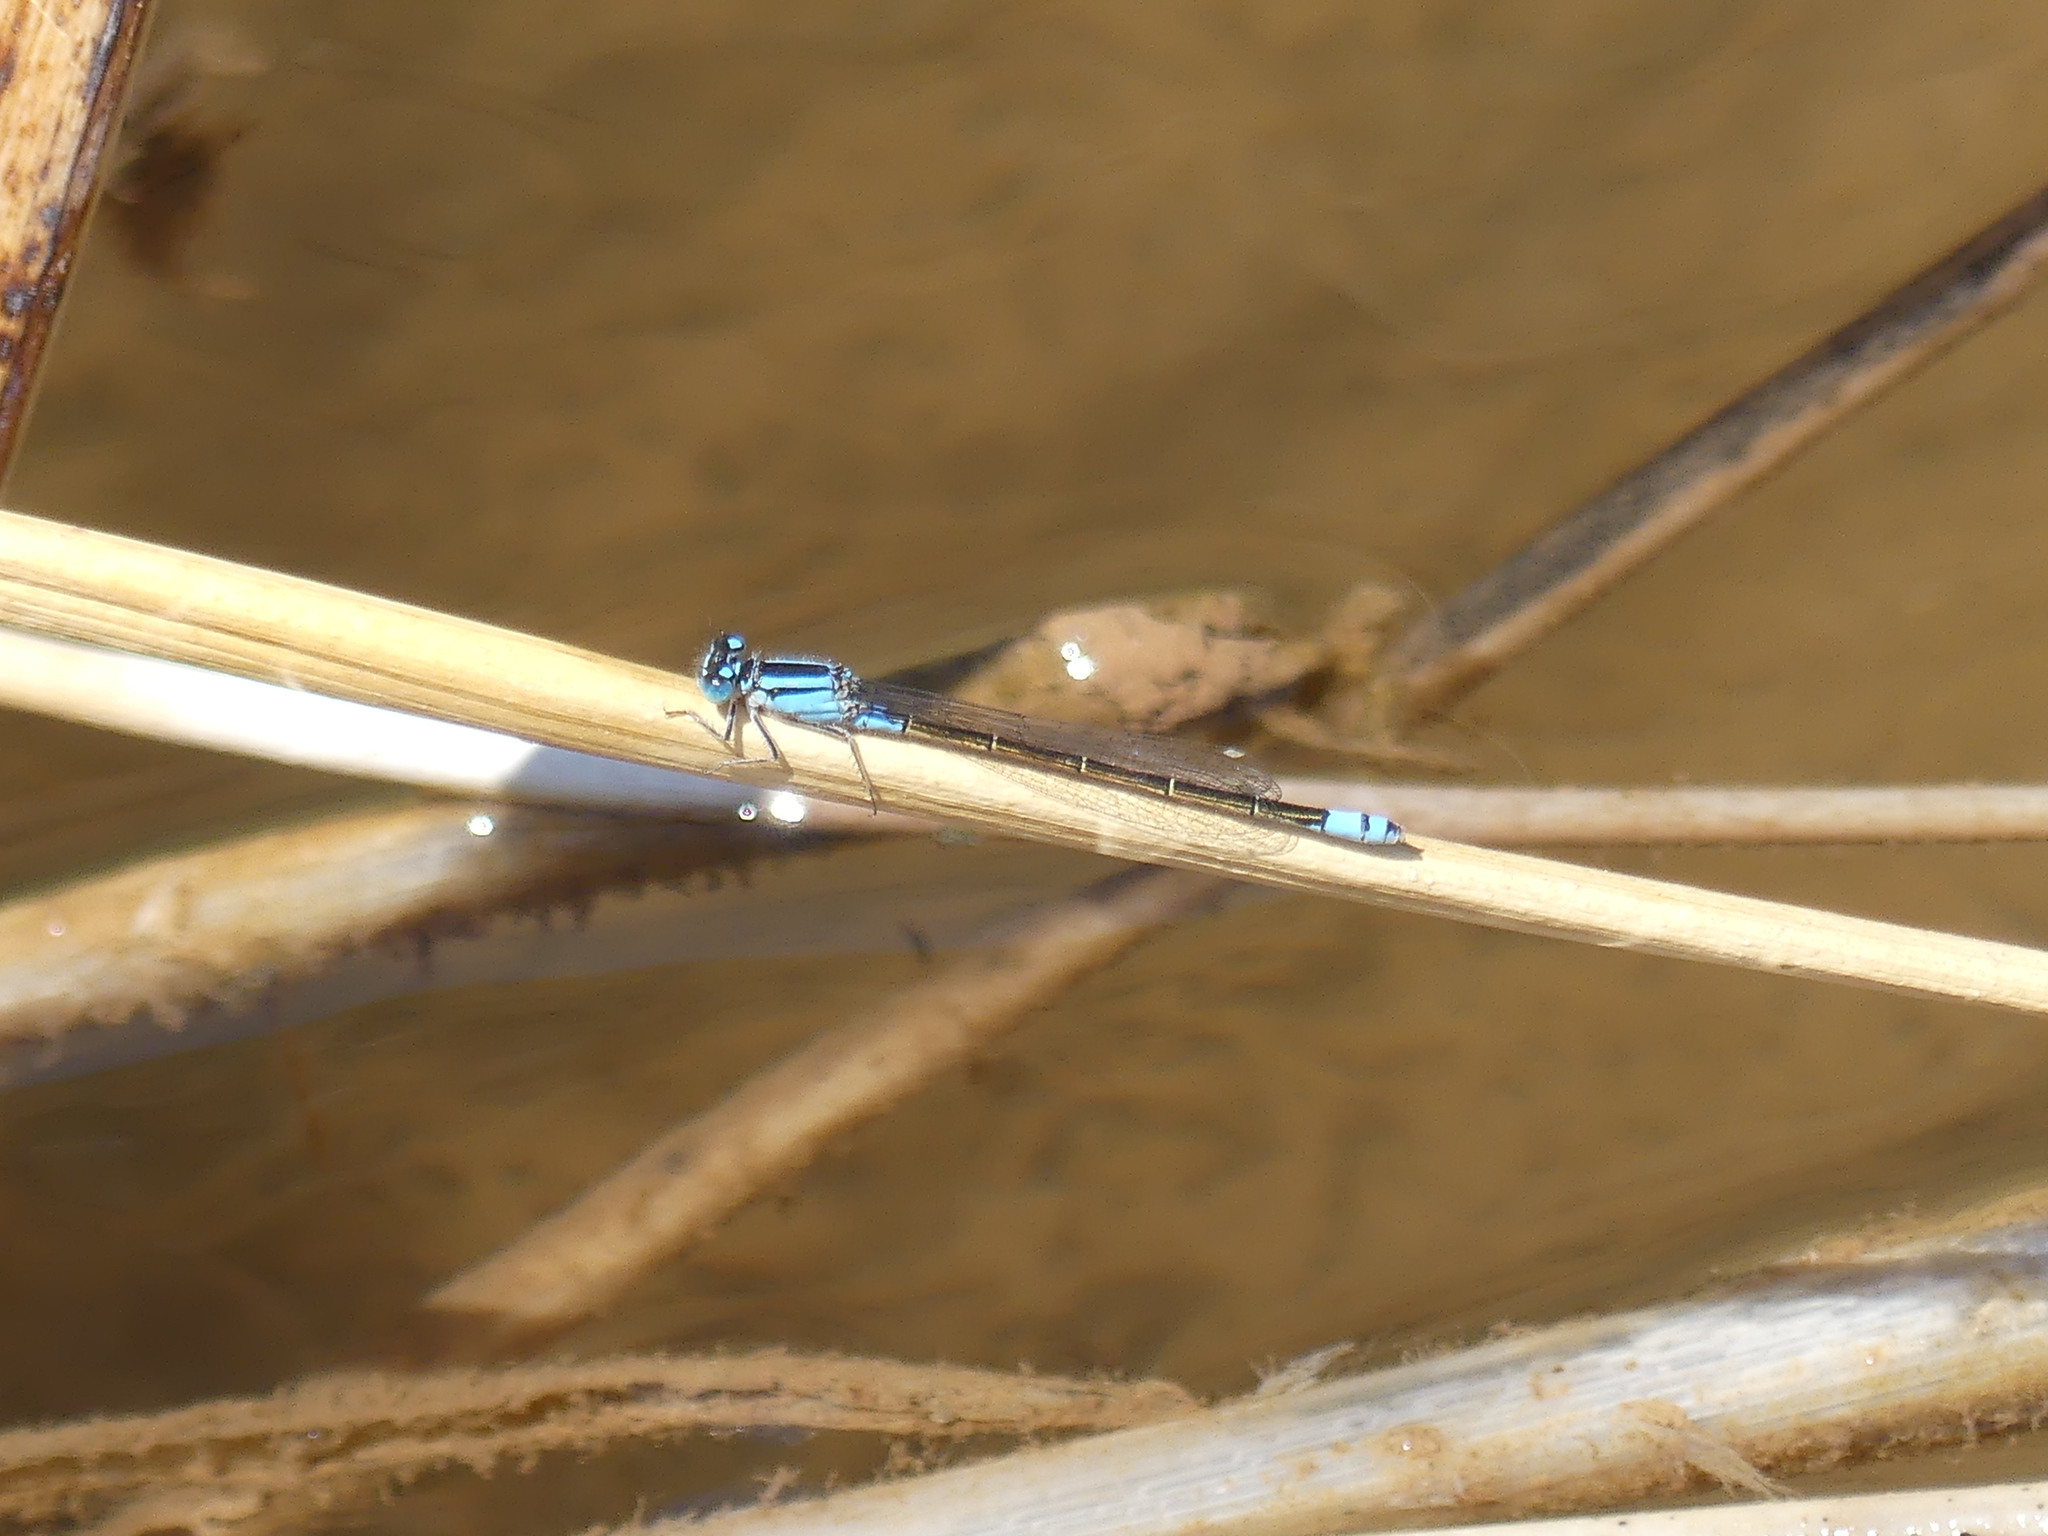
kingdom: Animalia
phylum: Arthropoda
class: Insecta
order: Odonata
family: Coenagrionidae
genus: Ischnura
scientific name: Ischnura heterosticta
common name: Common bluetail
